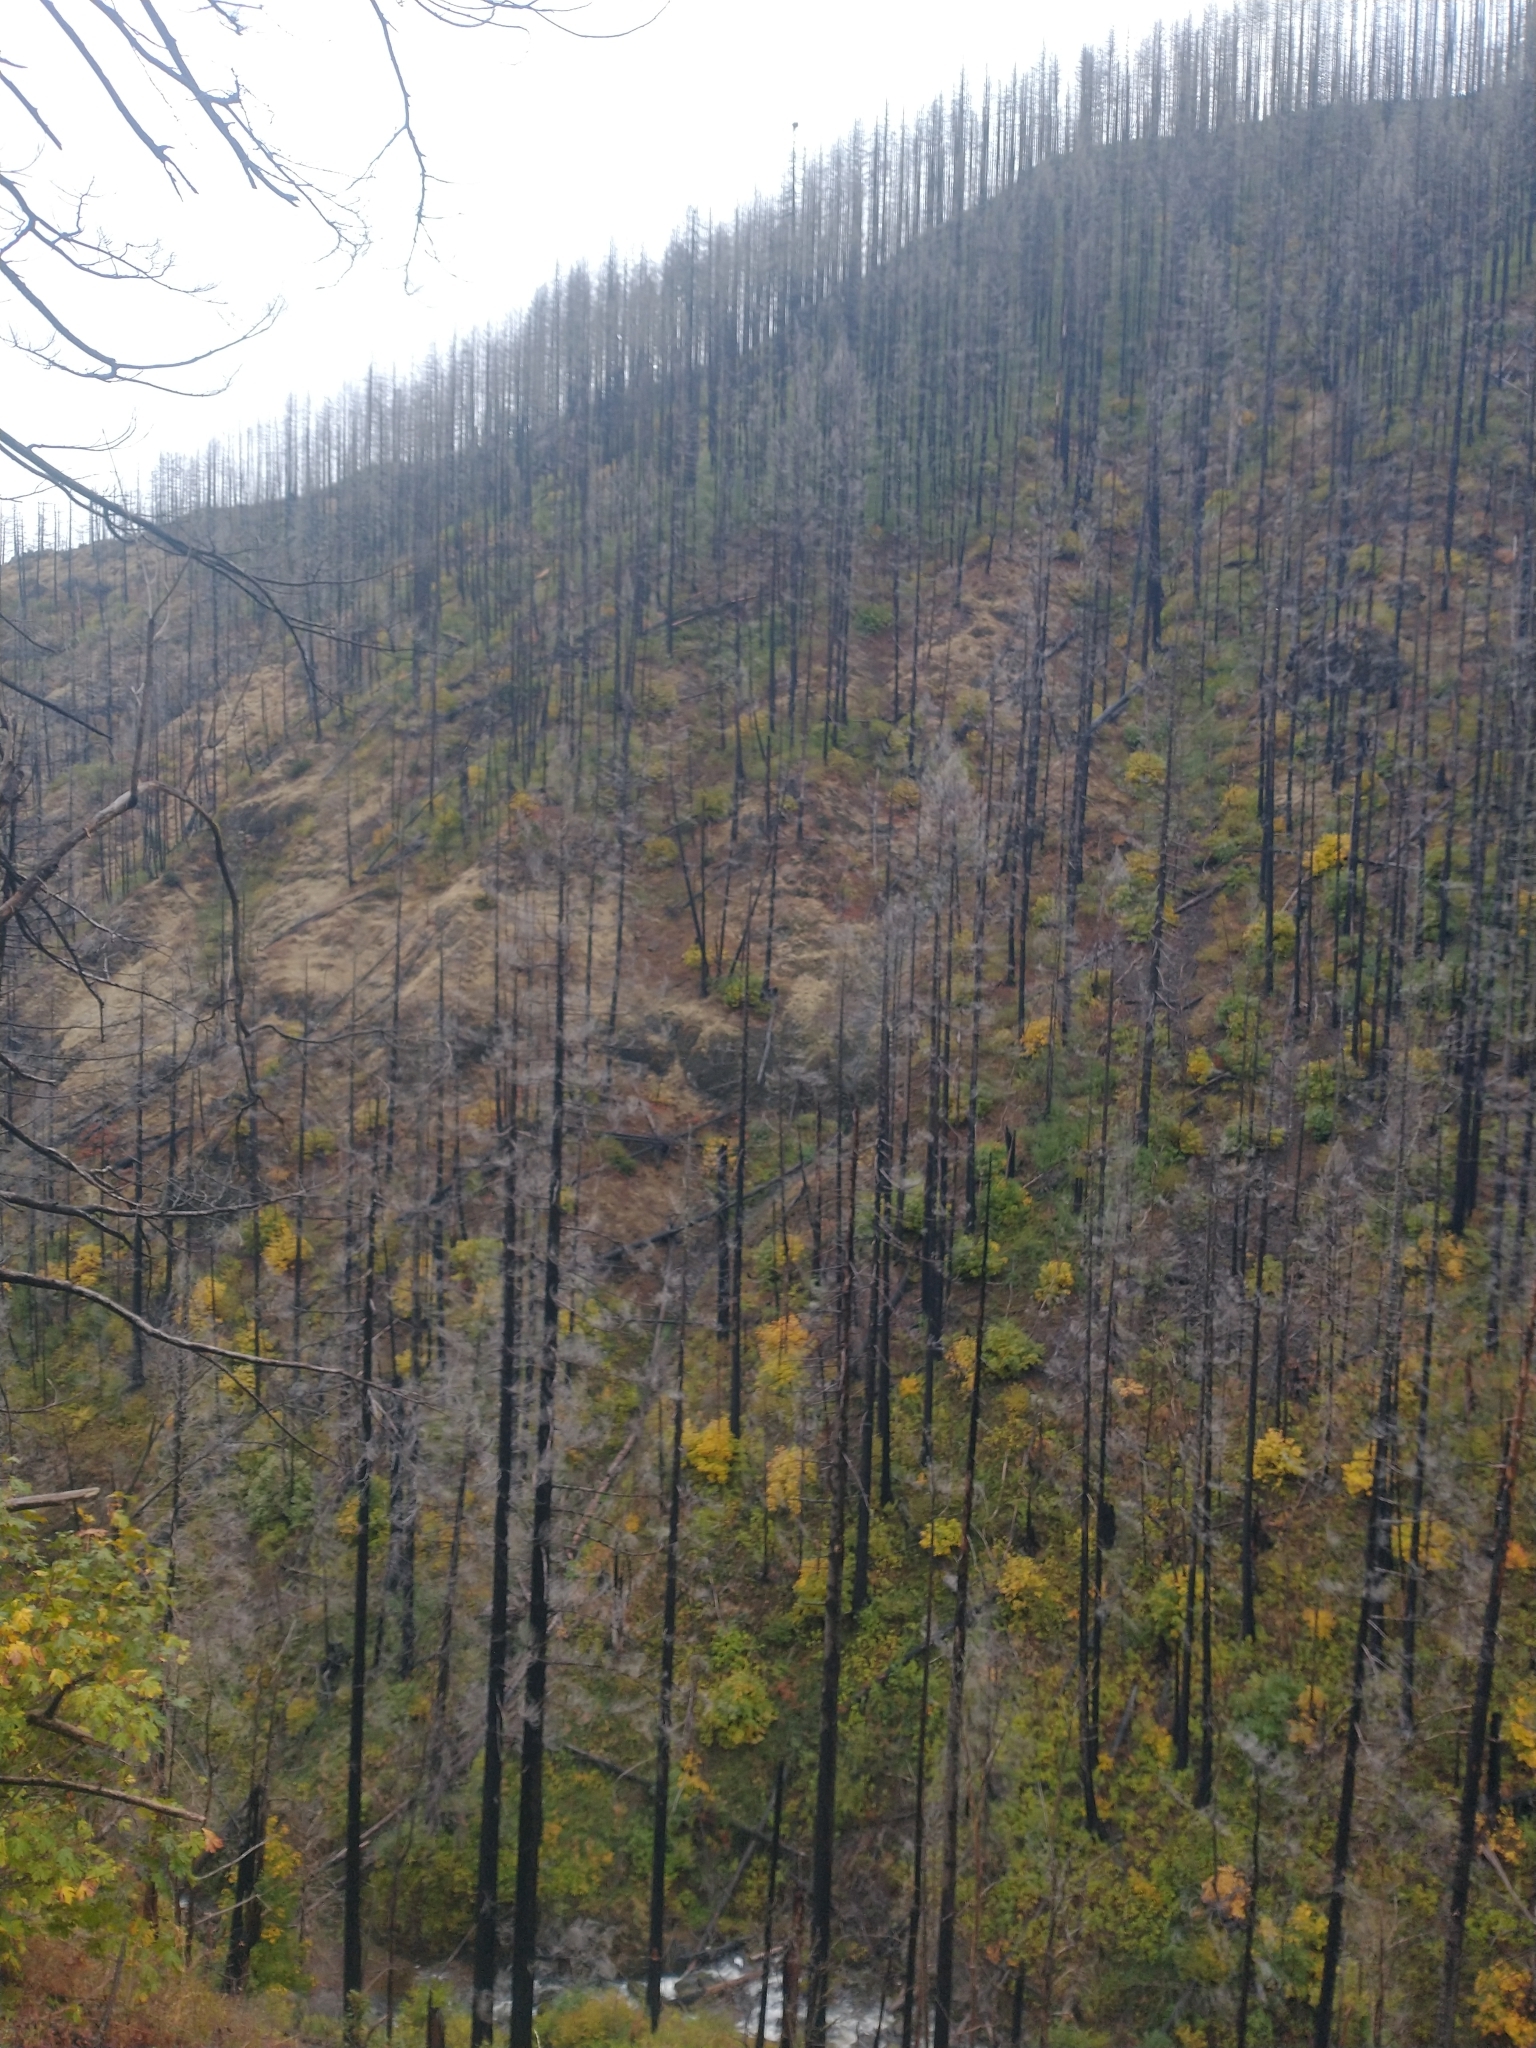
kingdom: Plantae
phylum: Tracheophyta
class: Magnoliopsida
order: Sapindales
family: Sapindaceae
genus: Acer
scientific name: Acer macrophyllum
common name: Oregon maple
